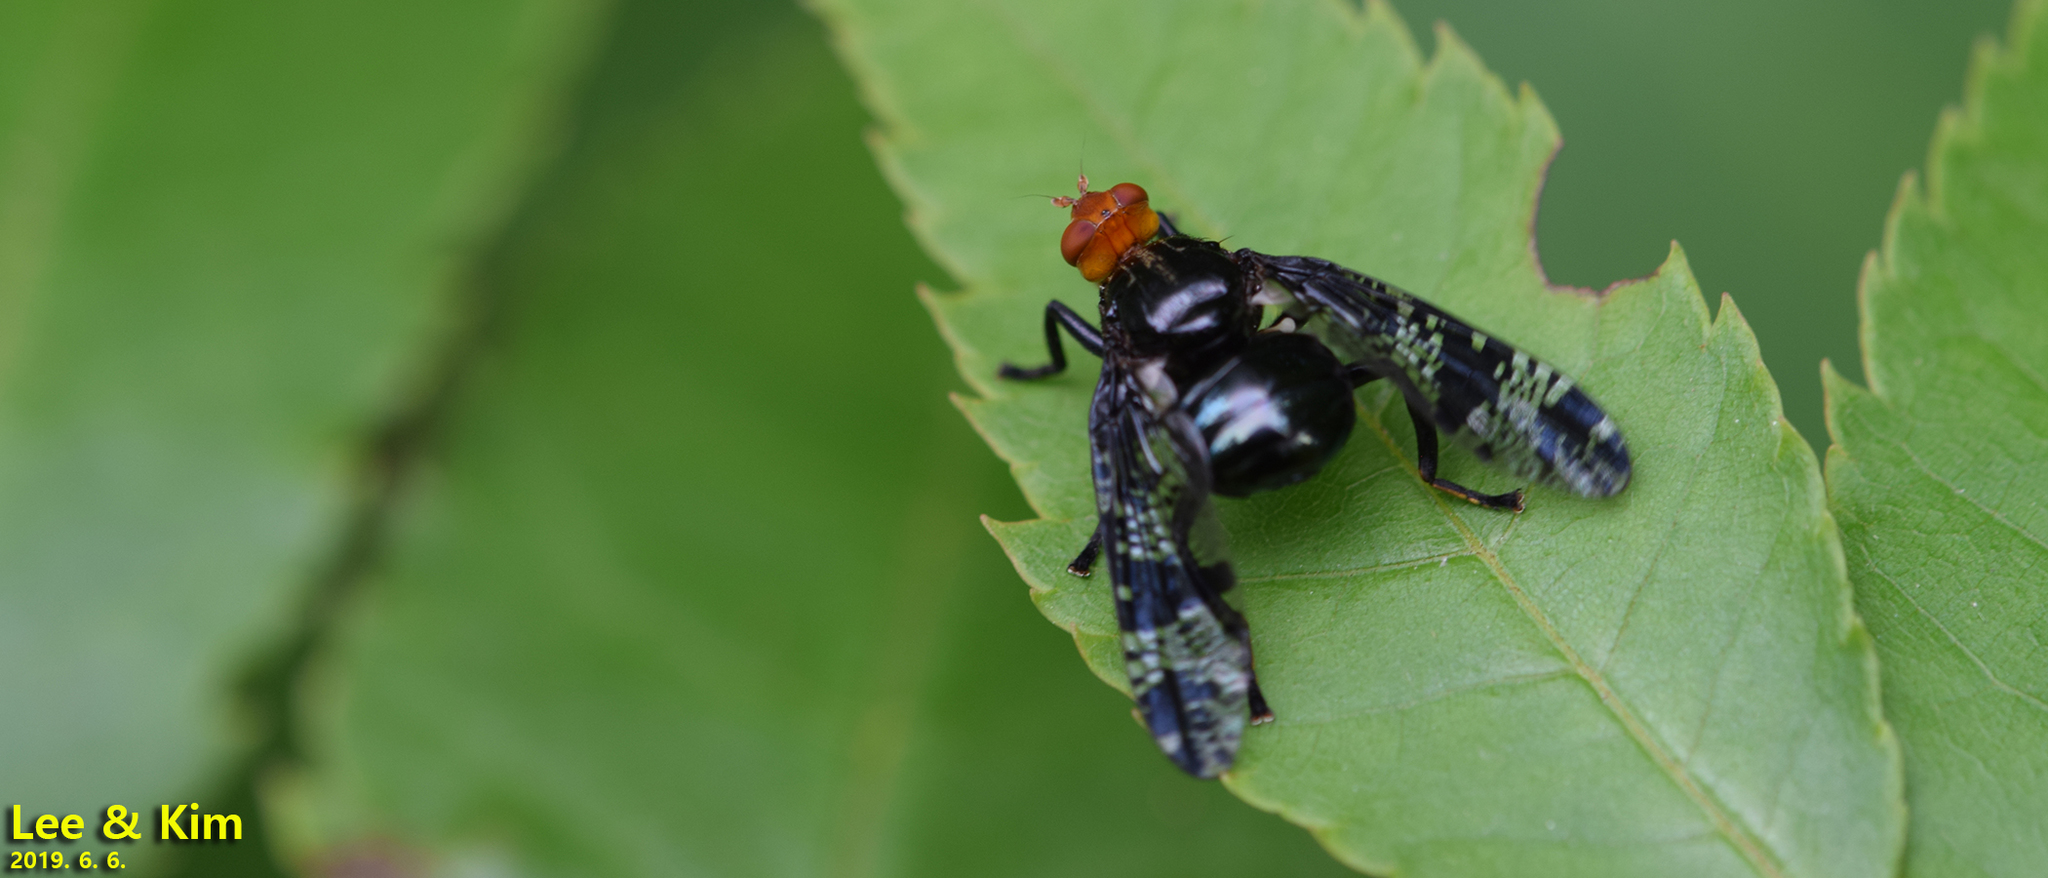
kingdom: Animalia
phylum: Arthropoda
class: Insecta
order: Diptera
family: Platystomatidae
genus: Prosthiochaeta
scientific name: Prosthiochaeta bifasciata
